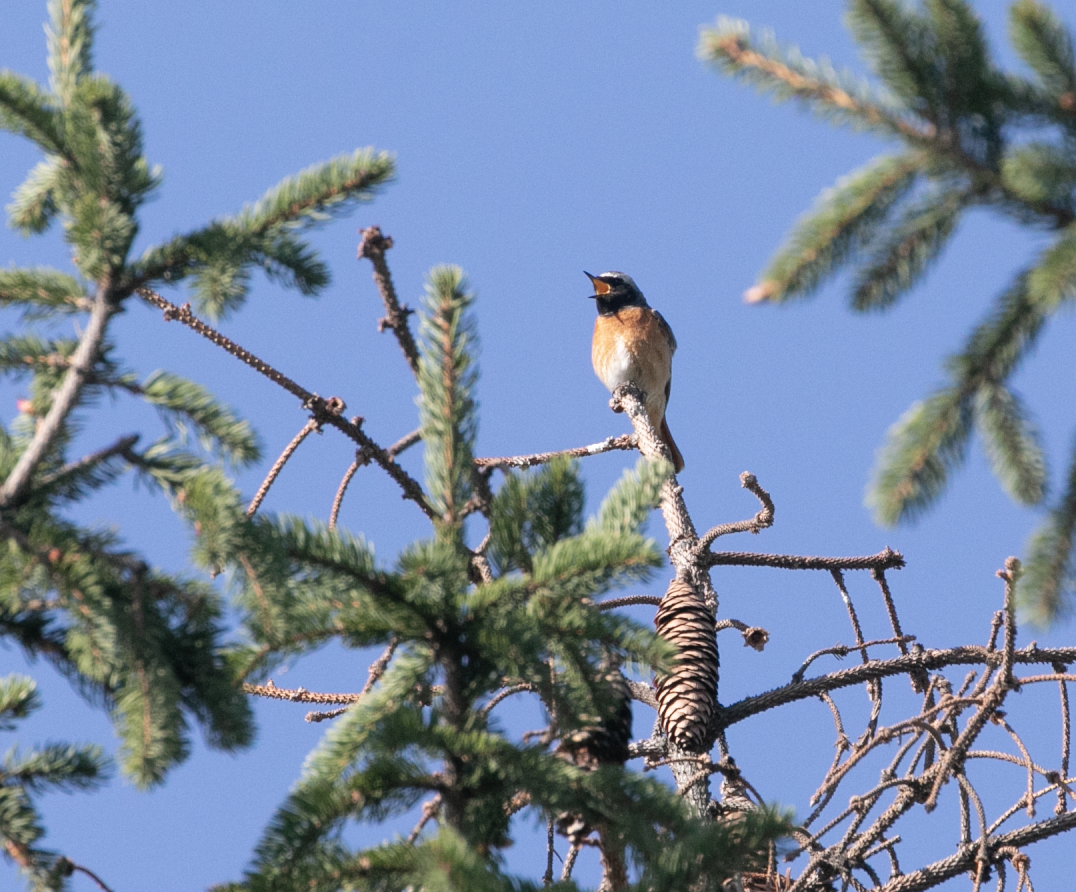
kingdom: Animalia
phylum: Chordata
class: Aves
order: Passeriformes
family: Muscicapidae
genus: Phoenicurus
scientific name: Phoenicurus phoenicurus
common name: Common redstart
